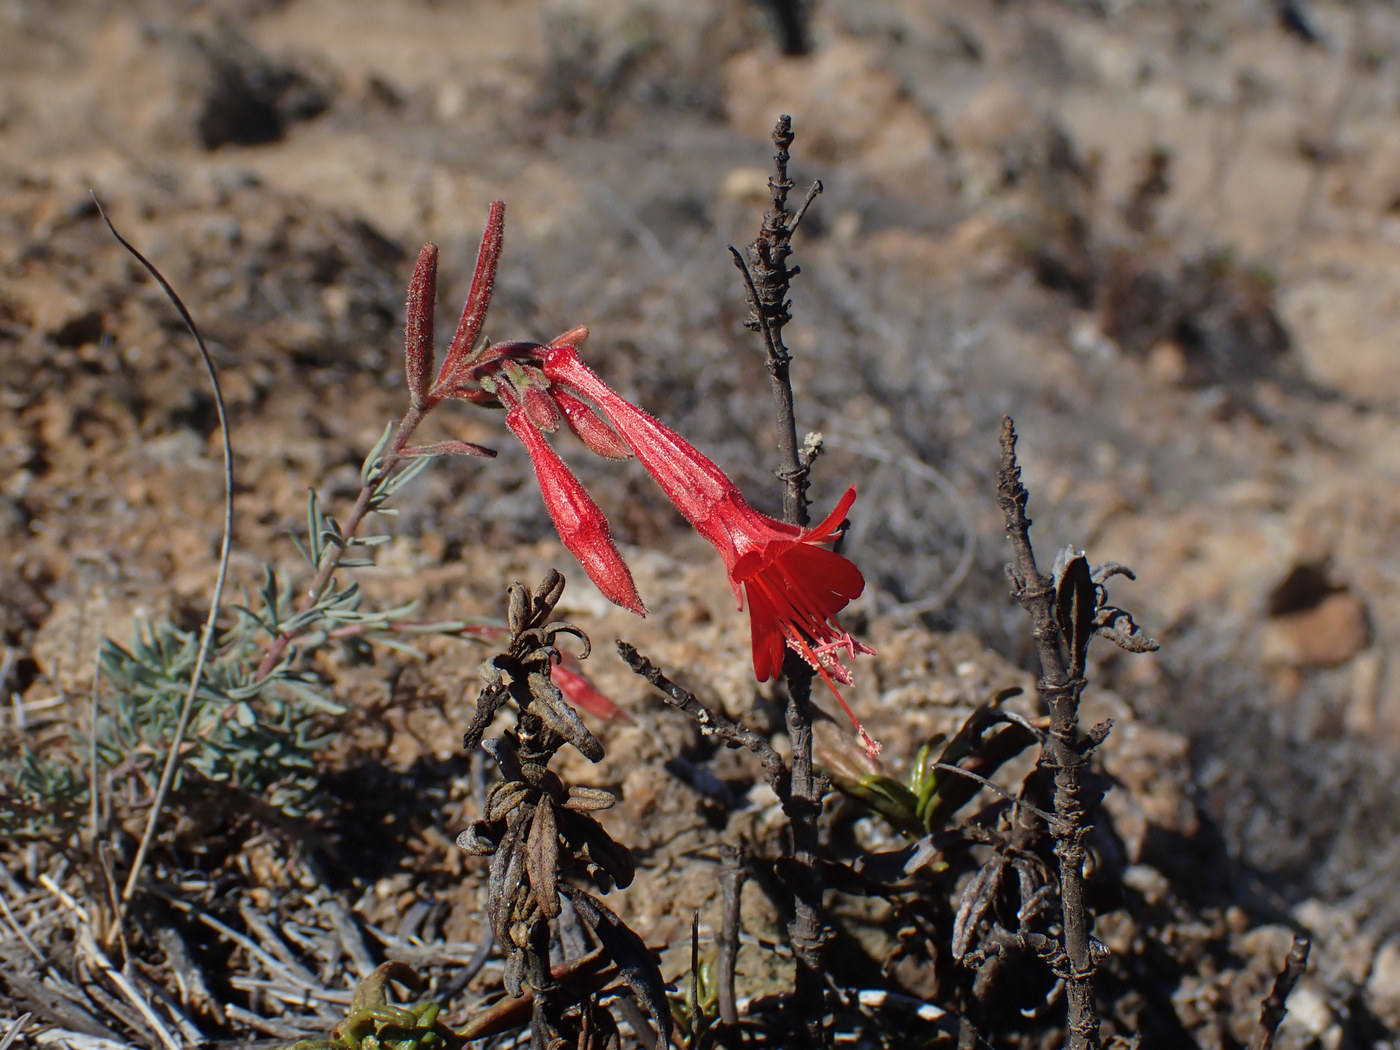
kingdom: Plantae
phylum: Tracheophyta
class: Magnoliopsida
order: Myrtales
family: Onagraceae
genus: Epilobium
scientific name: Epilobium canum
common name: California-fuchsia
